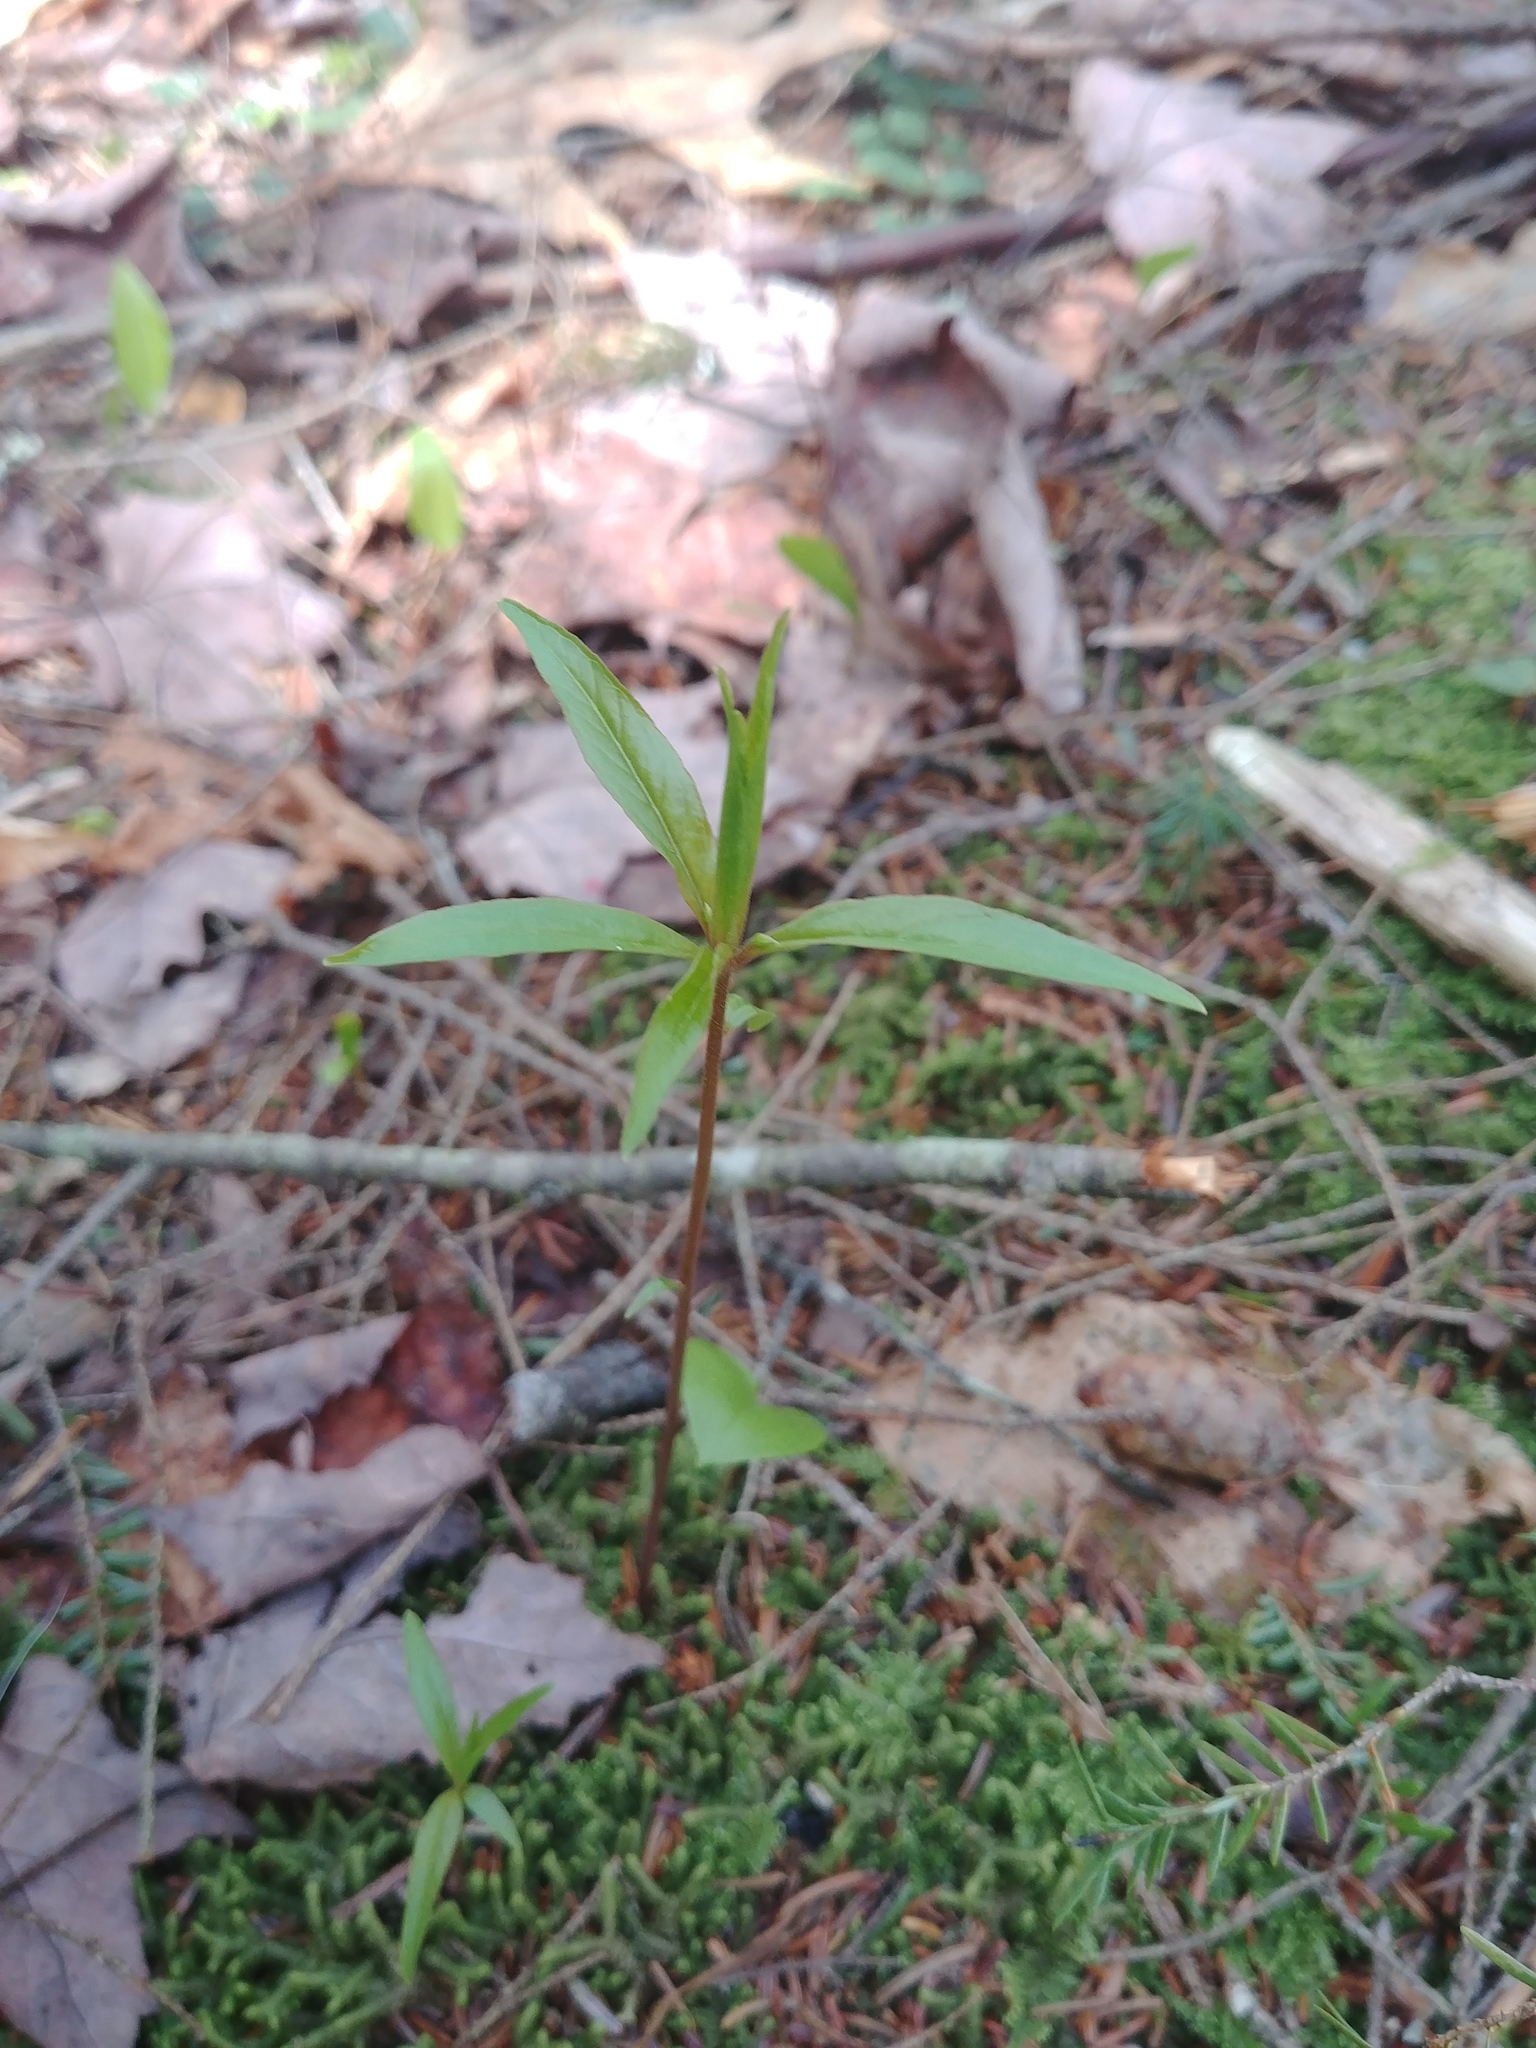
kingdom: Plantae
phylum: Tracheophyta
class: Magnoliopsida
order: Ericales
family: Primulaceae
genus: Lysimachia
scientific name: Lysimachia borealis
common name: American starflower
